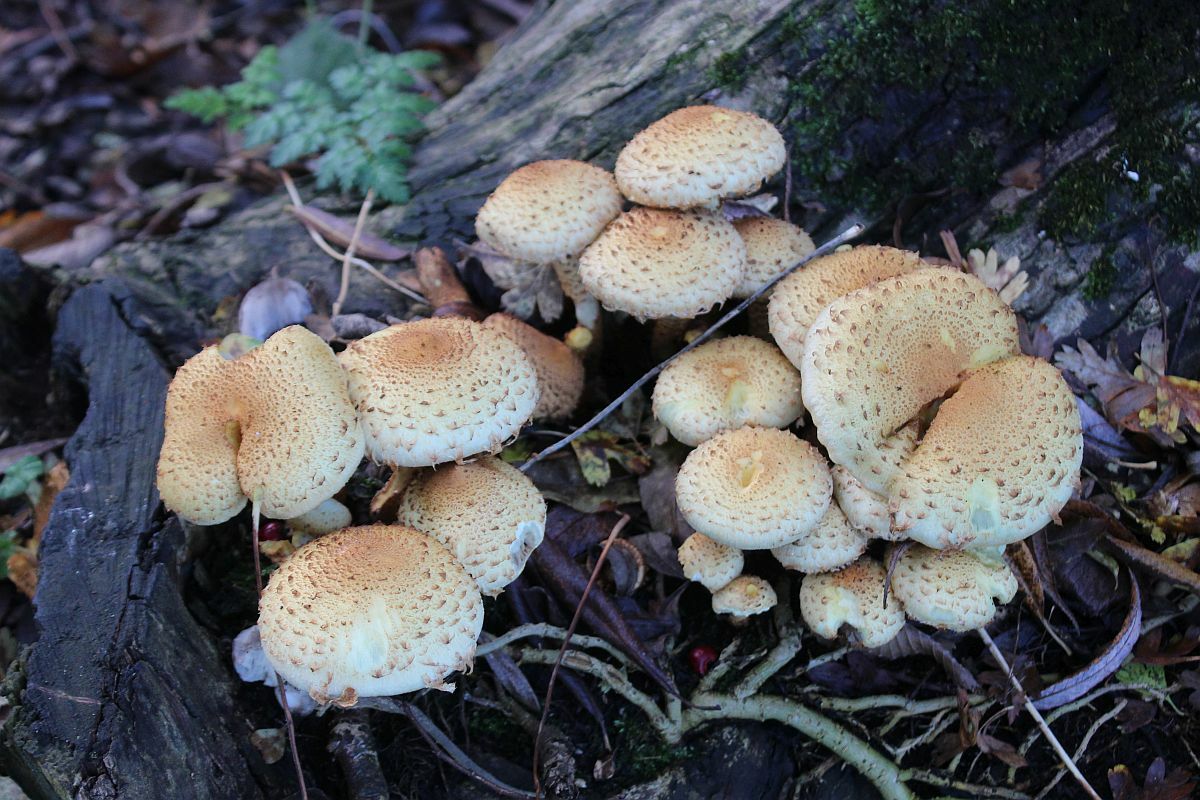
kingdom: Fungi
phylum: Basidiomycota
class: Agaricomycetes
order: Agaricales
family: Strophariaceae
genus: Pholiota
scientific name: Pholiota squarrosa
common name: Shaggy pholiota
